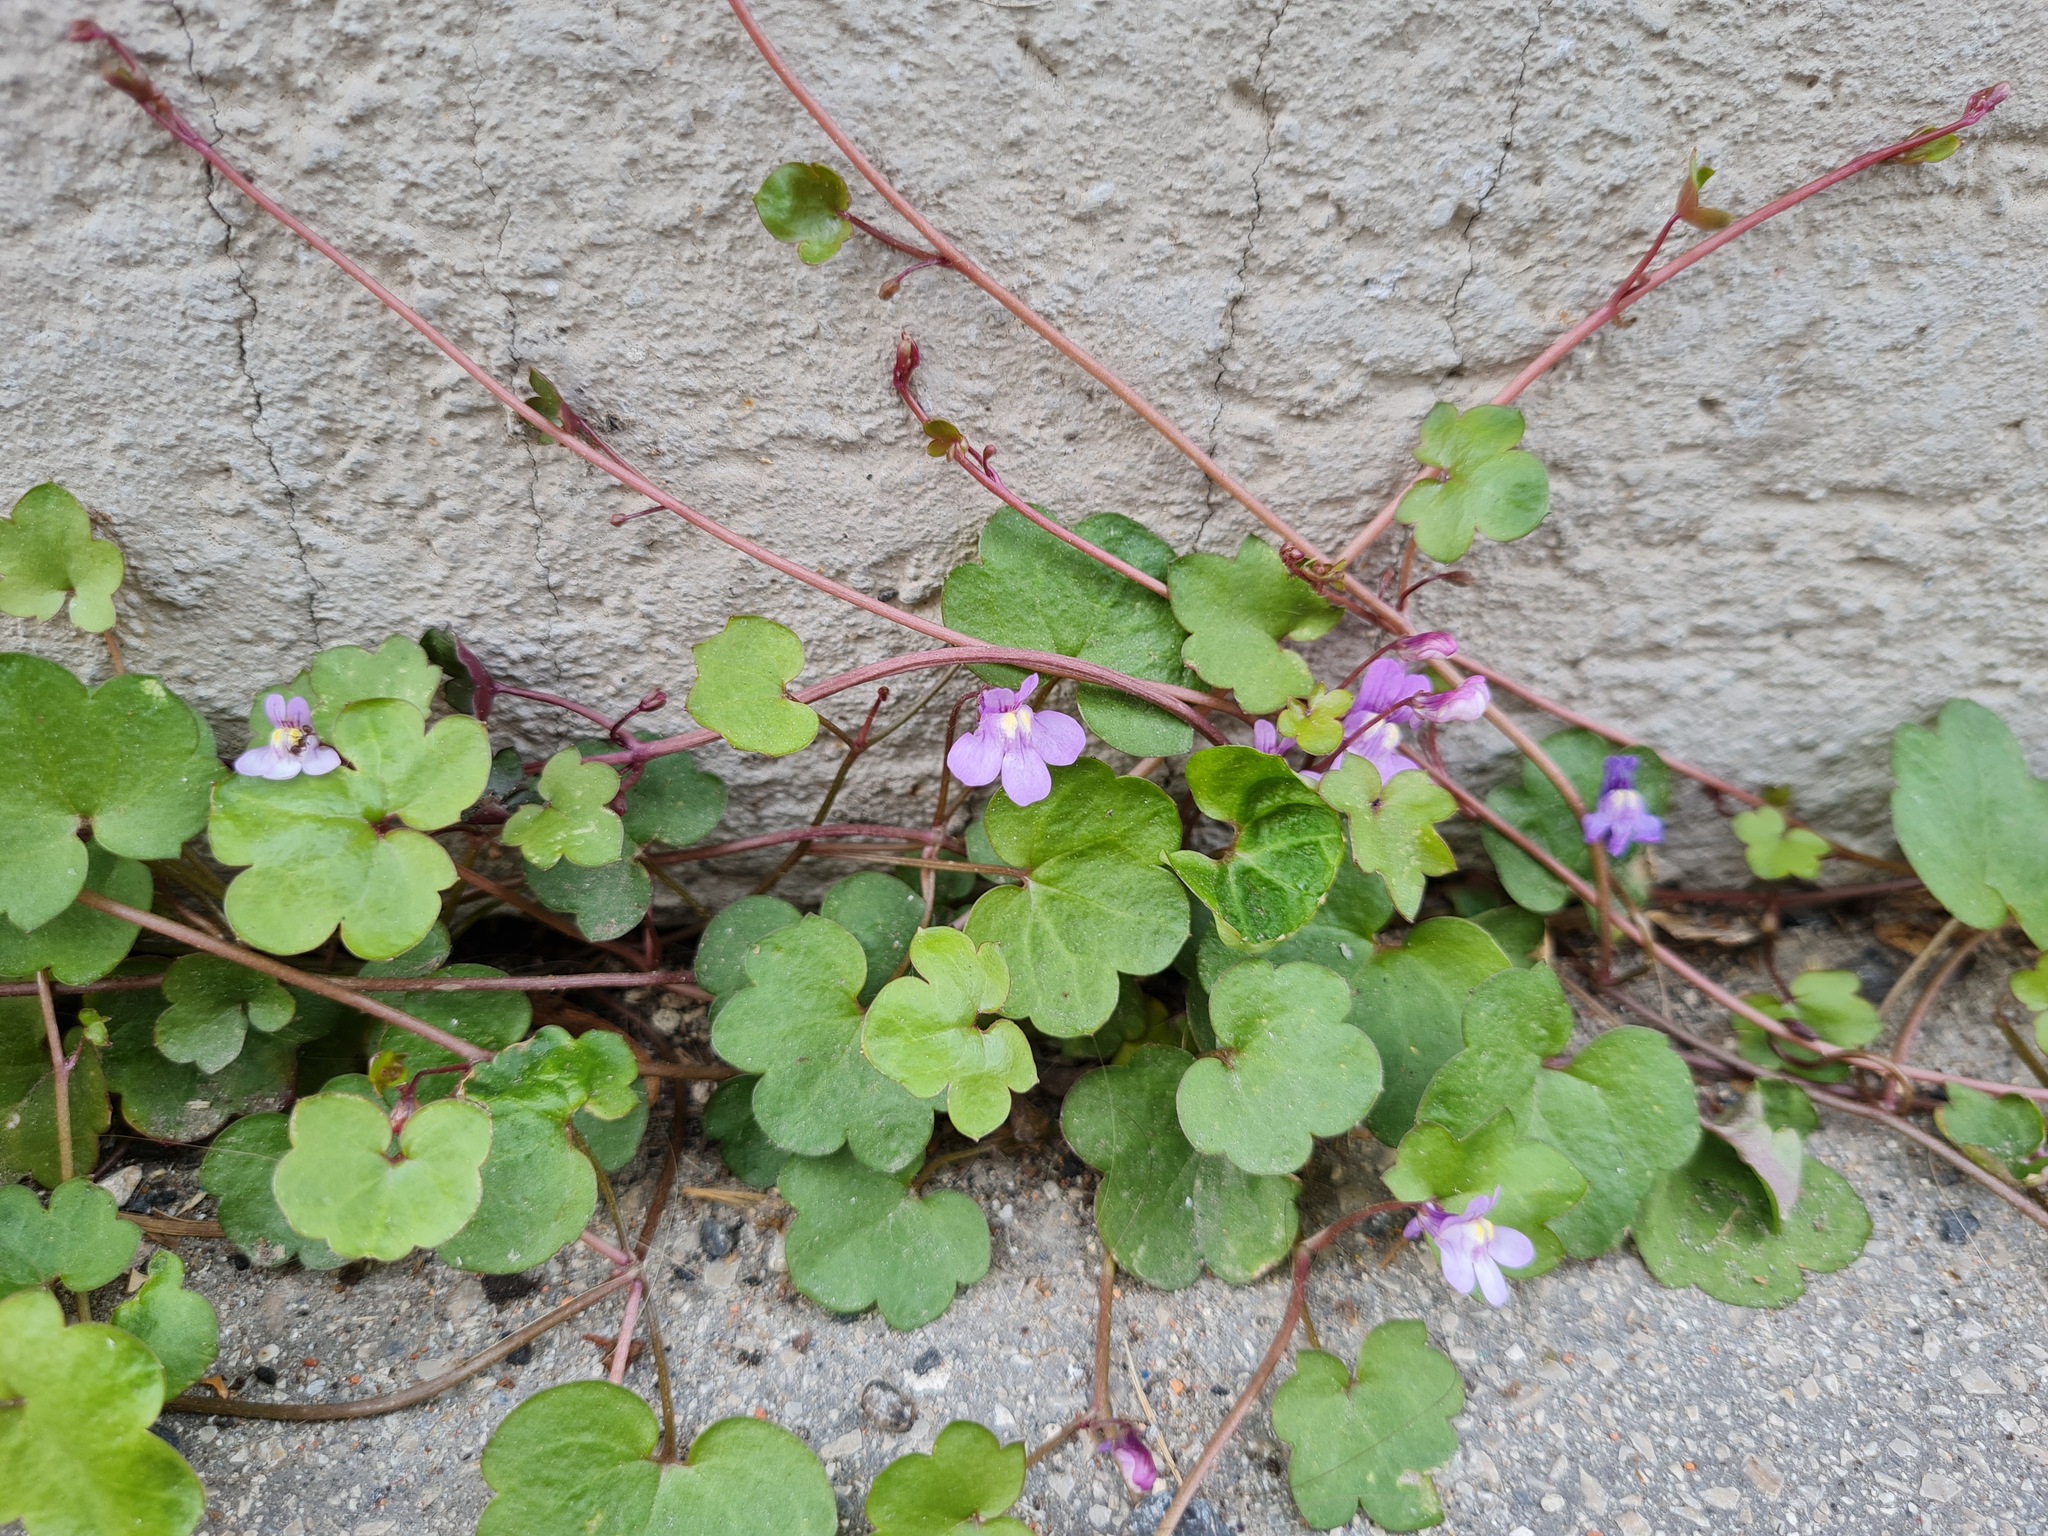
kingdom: Plantae
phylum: Tracheophyta
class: Magnoliopsida
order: Lamiales
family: Plantaginaceae
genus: Cymbalaria
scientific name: Cymbalaria muralis
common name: Ivy-leaved toadflax
